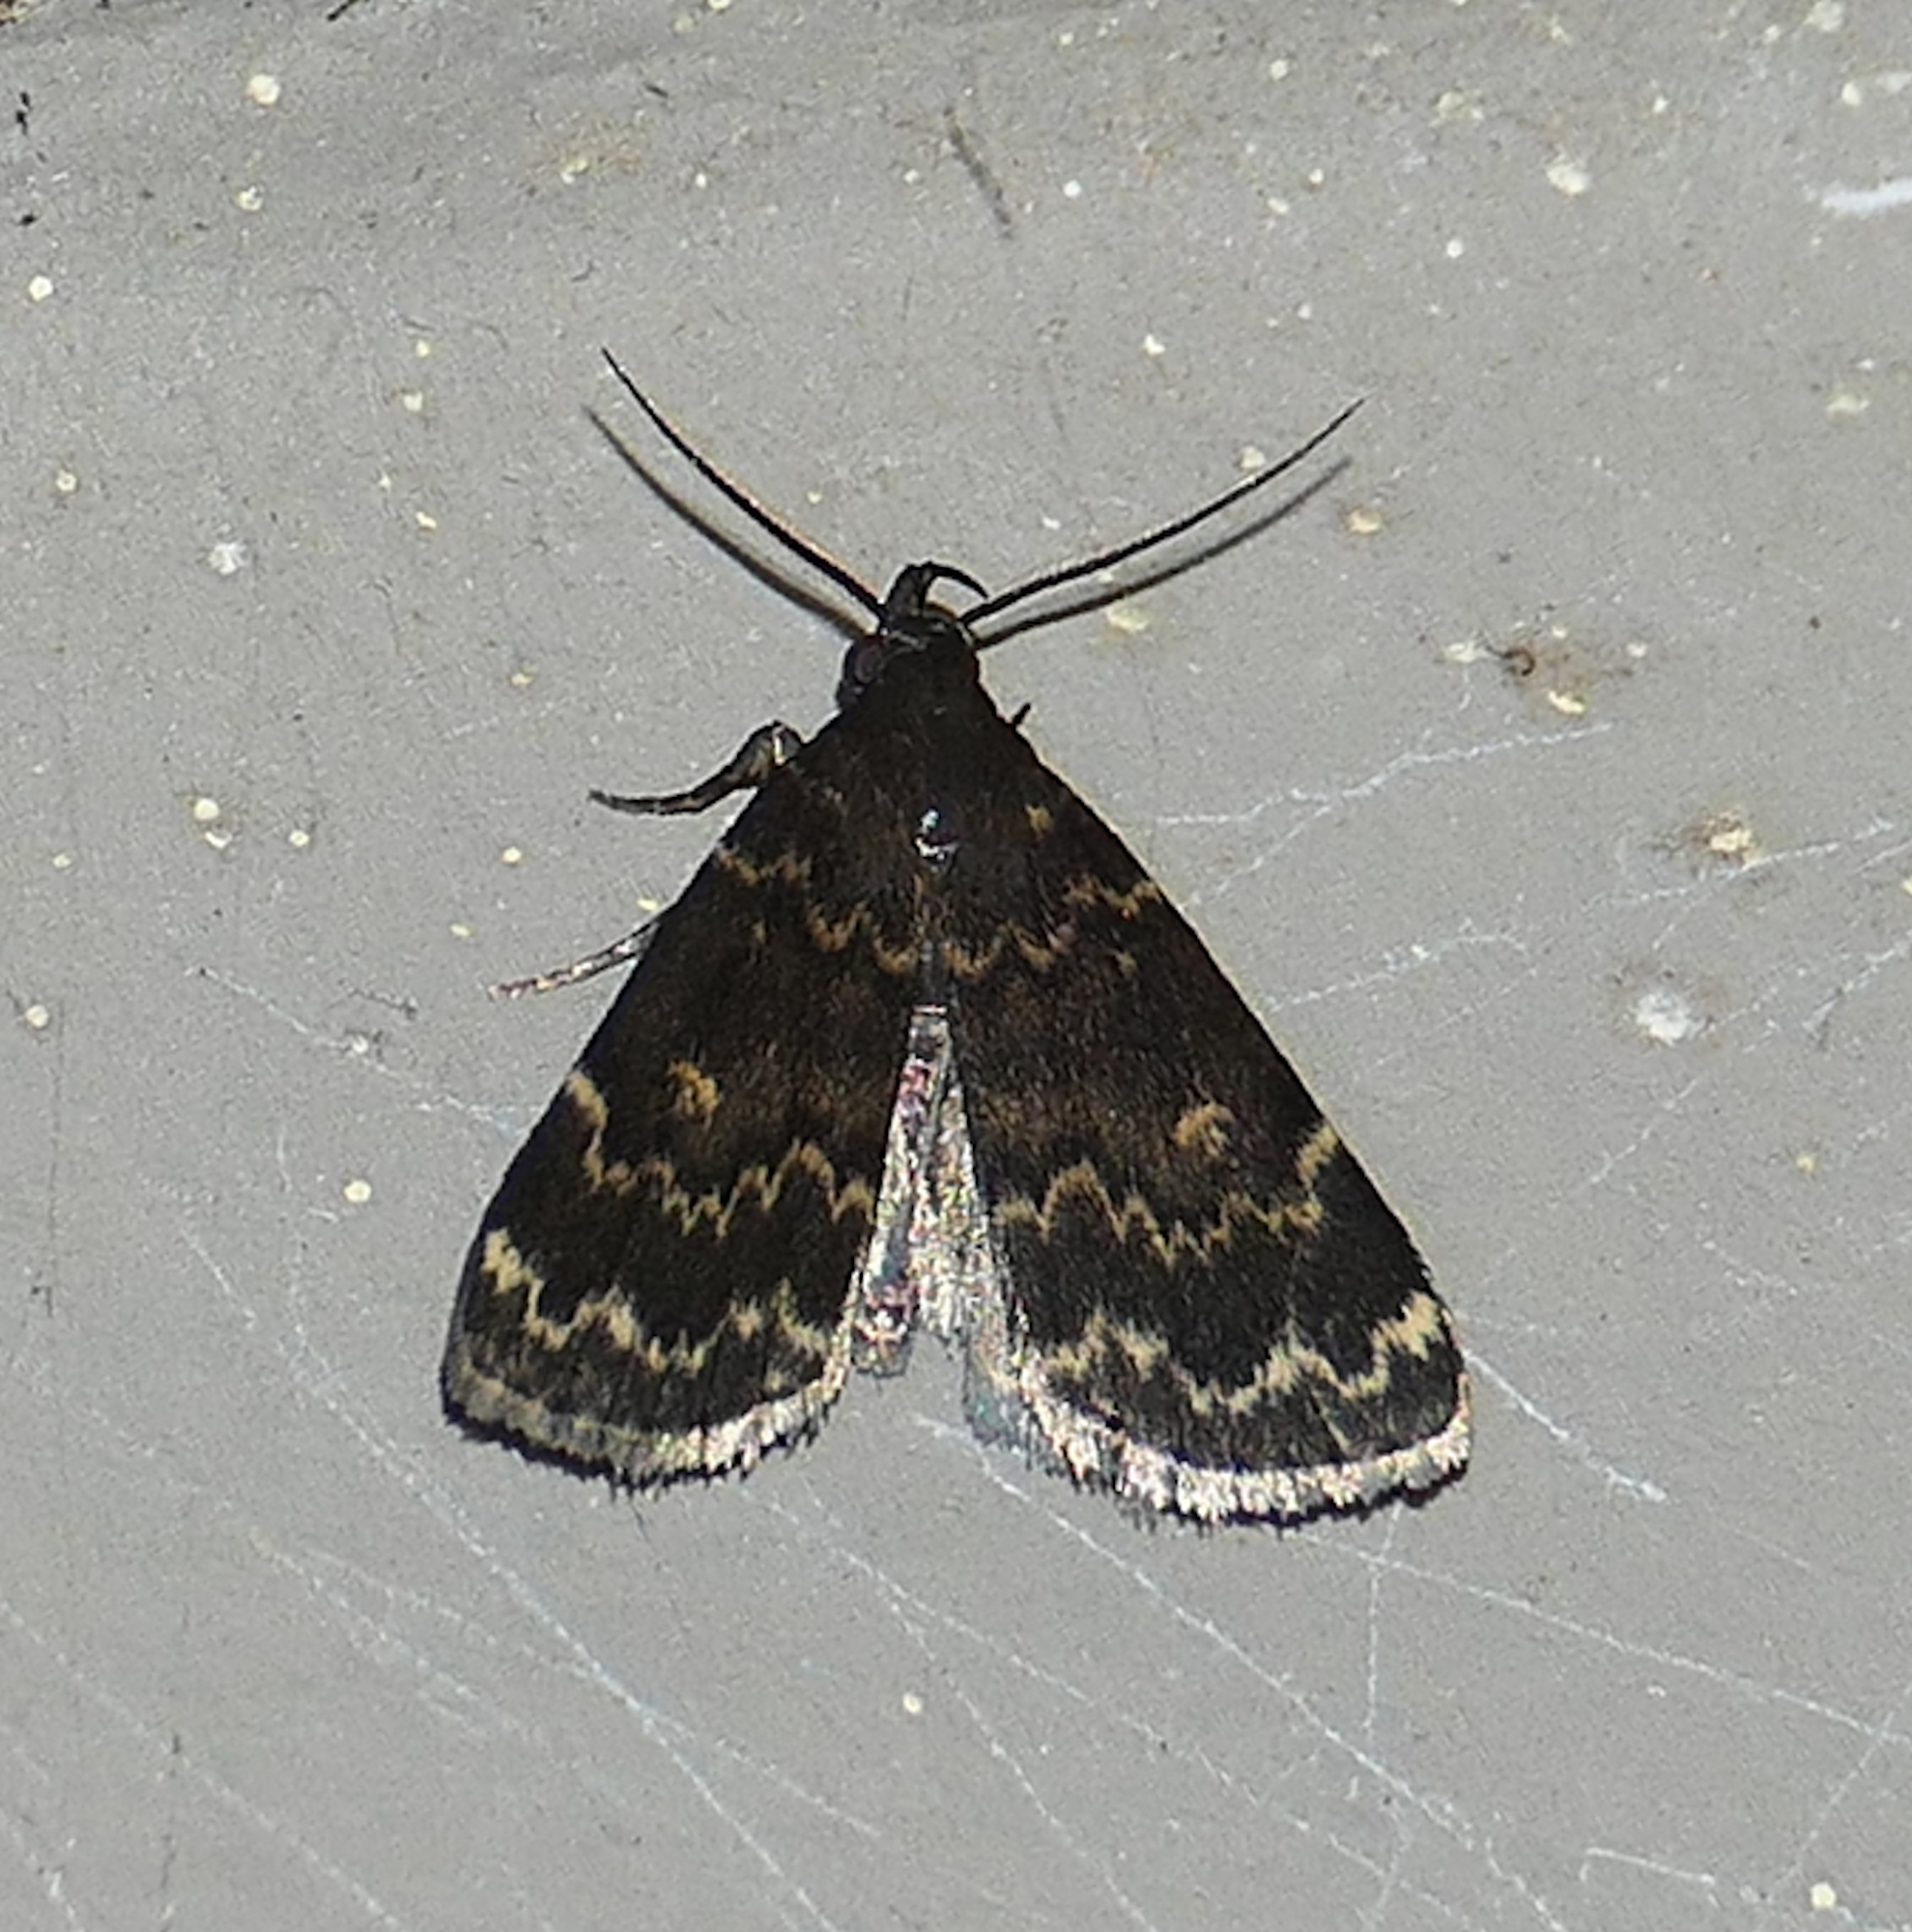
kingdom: Animalia
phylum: Arthropoda
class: Insecta
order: Lepidoptera
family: Erebidae
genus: Idia
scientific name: Idia lubricalis
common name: Twin-striped tabby
